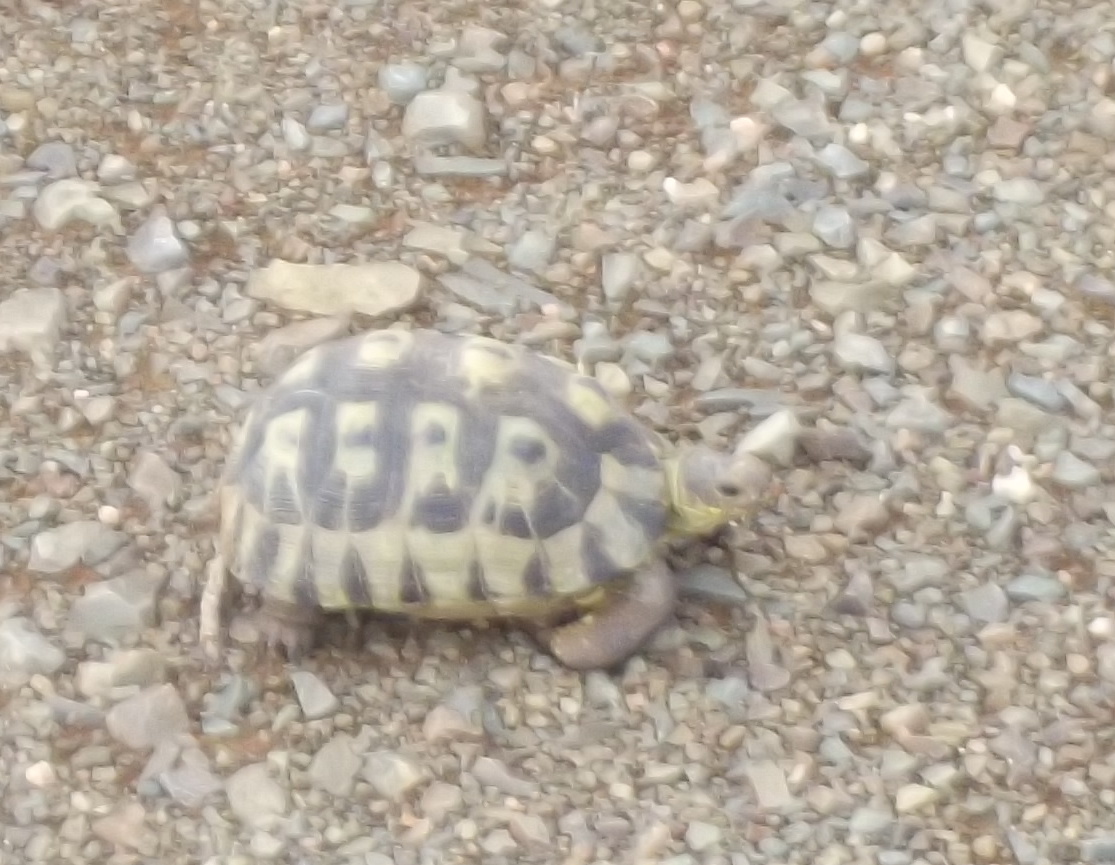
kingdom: Animalia
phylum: Chordata
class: Testudines
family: Testudinidae
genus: Chersina
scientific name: Chersina angulata
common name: South african bowsprit tortoise
